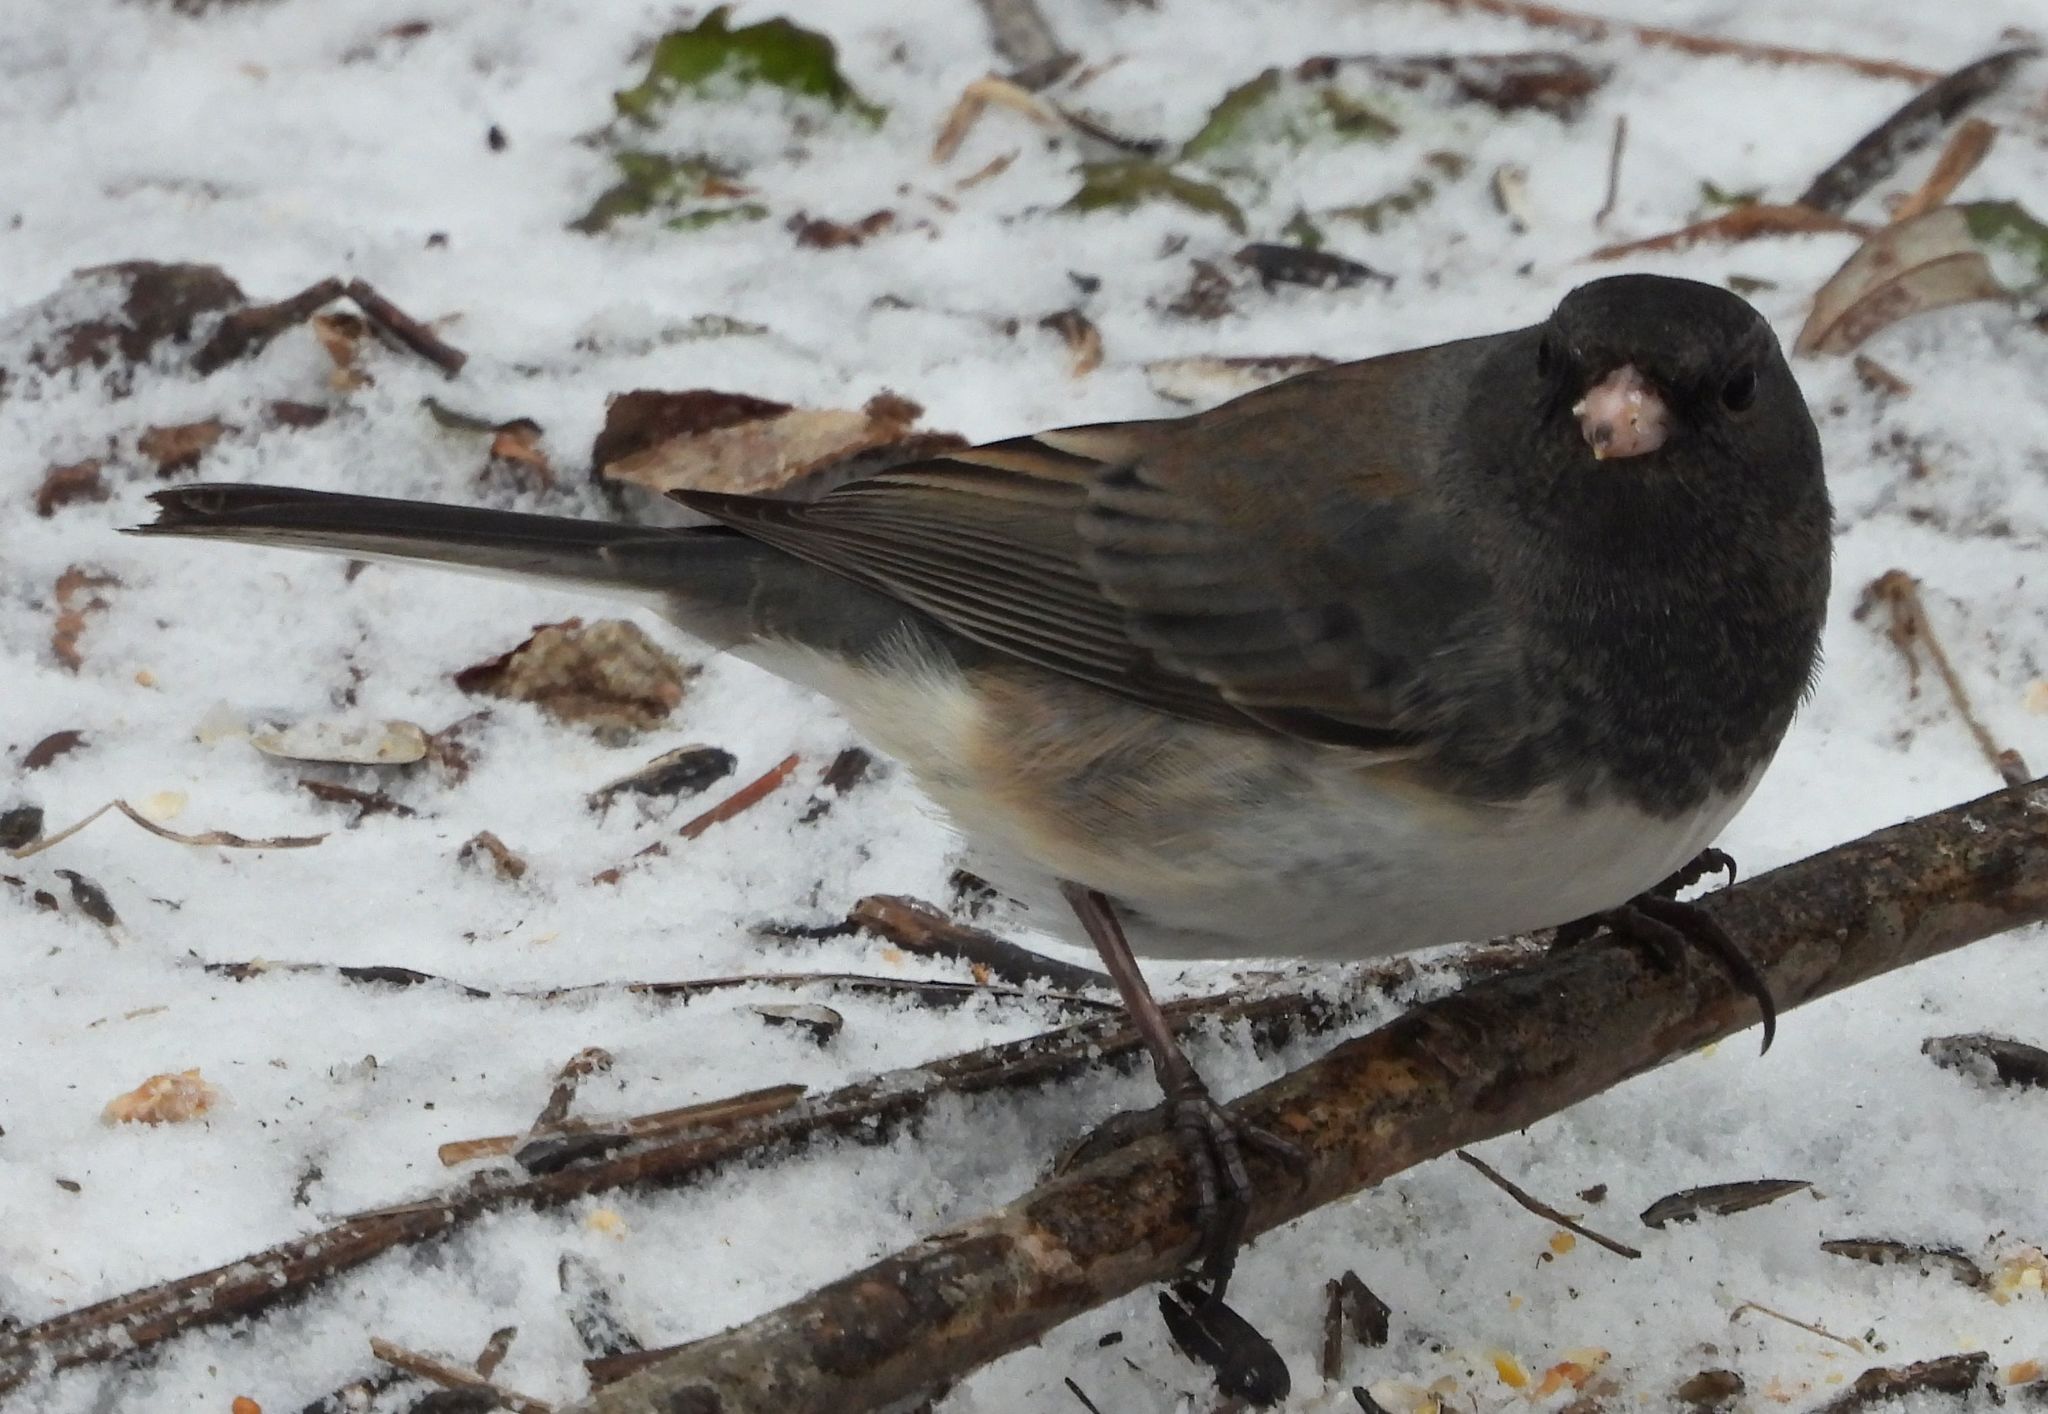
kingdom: Animalia
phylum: Chordata
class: Aves
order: Passeriformes
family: Passerellidae
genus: Junco
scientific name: Junco hyemalis
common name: Dark-eyed junco
